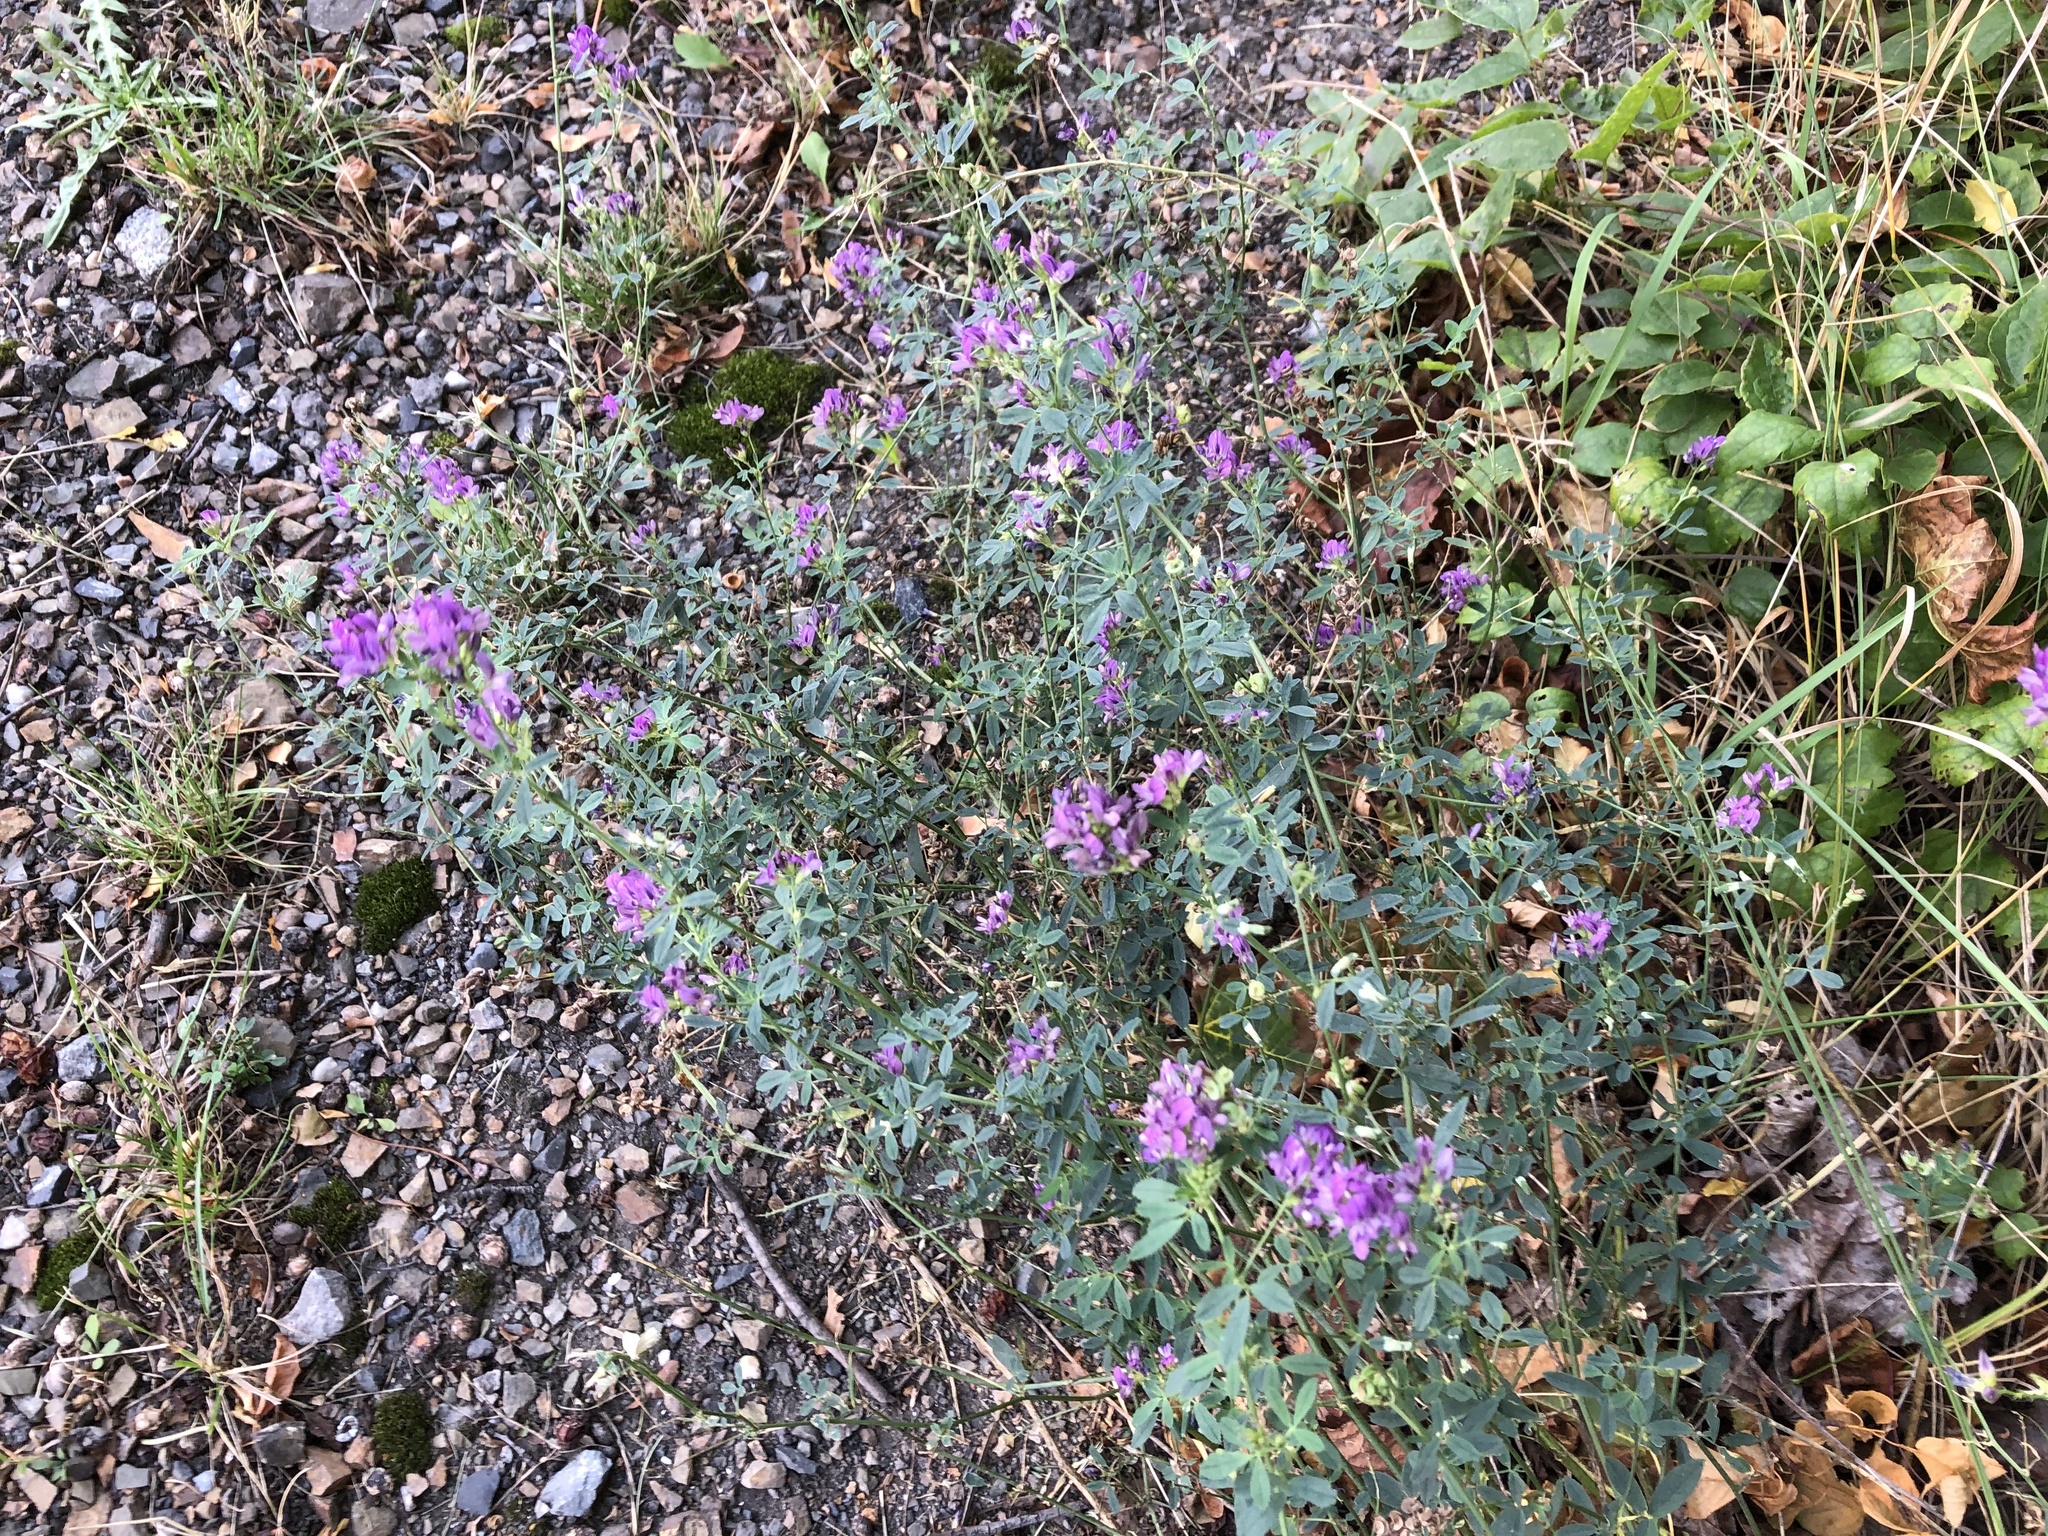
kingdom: Plantae
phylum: Tracheophyta
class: Magnoliopsida
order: Fabales
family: Fabaceae
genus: Medicago
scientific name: Medicago sativa
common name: Alfalfa
